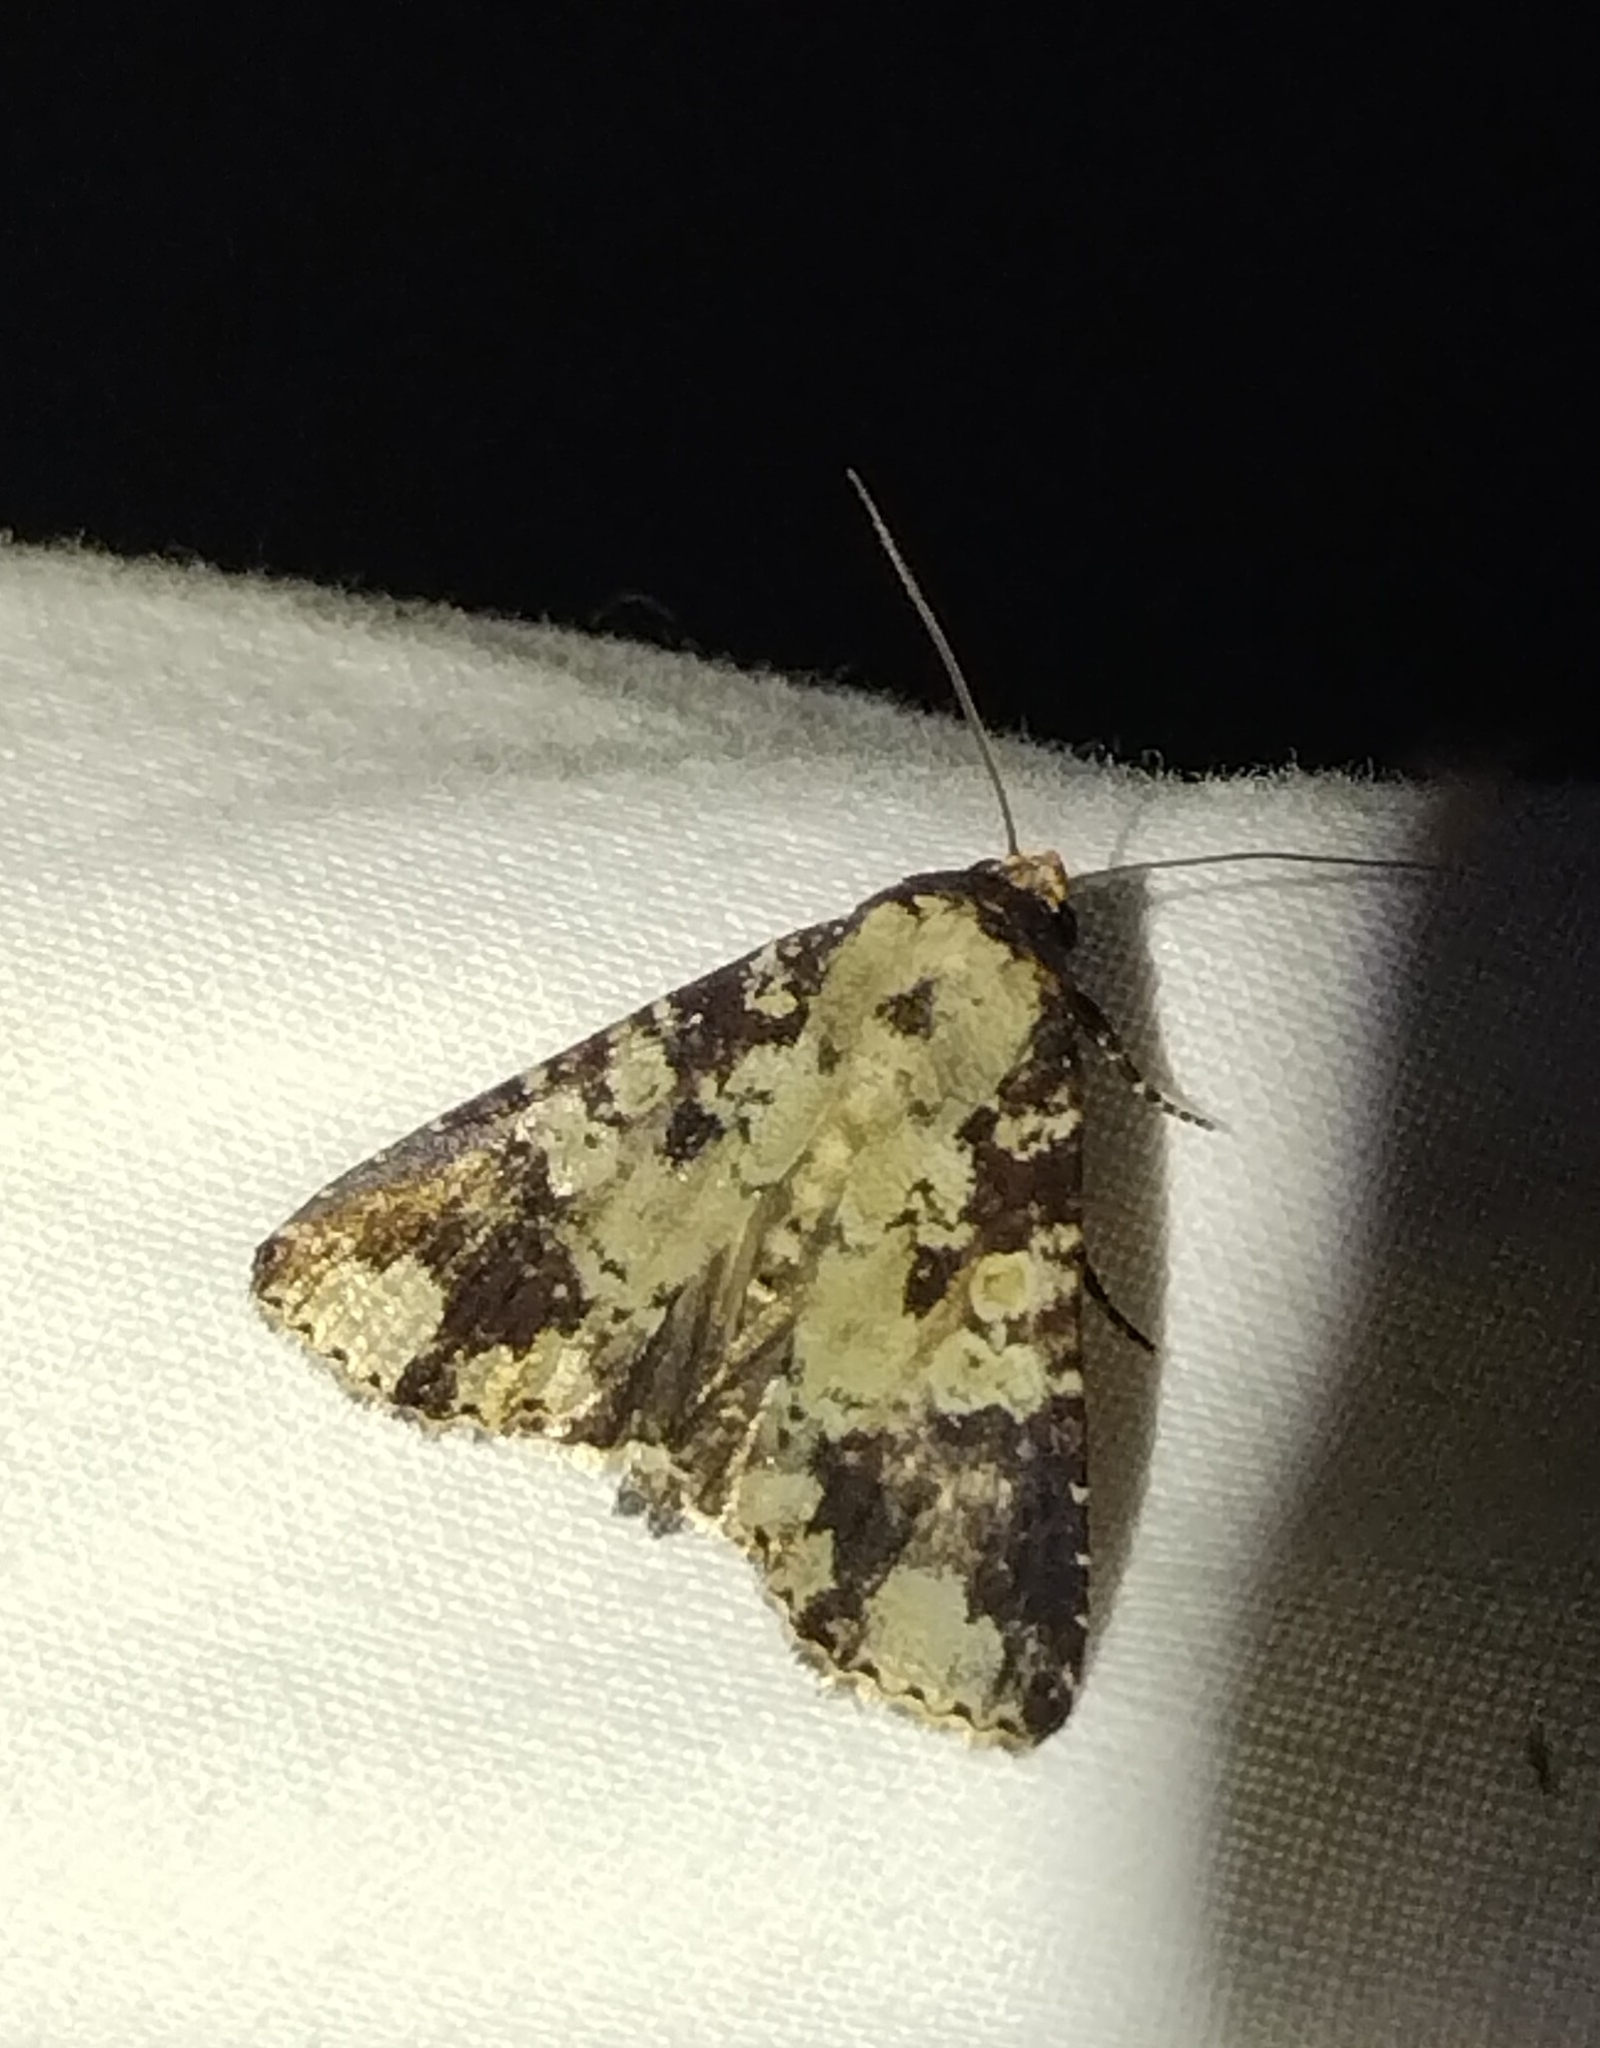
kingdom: Animalia
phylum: Arthropoda
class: Insecta
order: Lepidoptera
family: Noctuidae
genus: Condica
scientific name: Condica confederata
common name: The confederate
